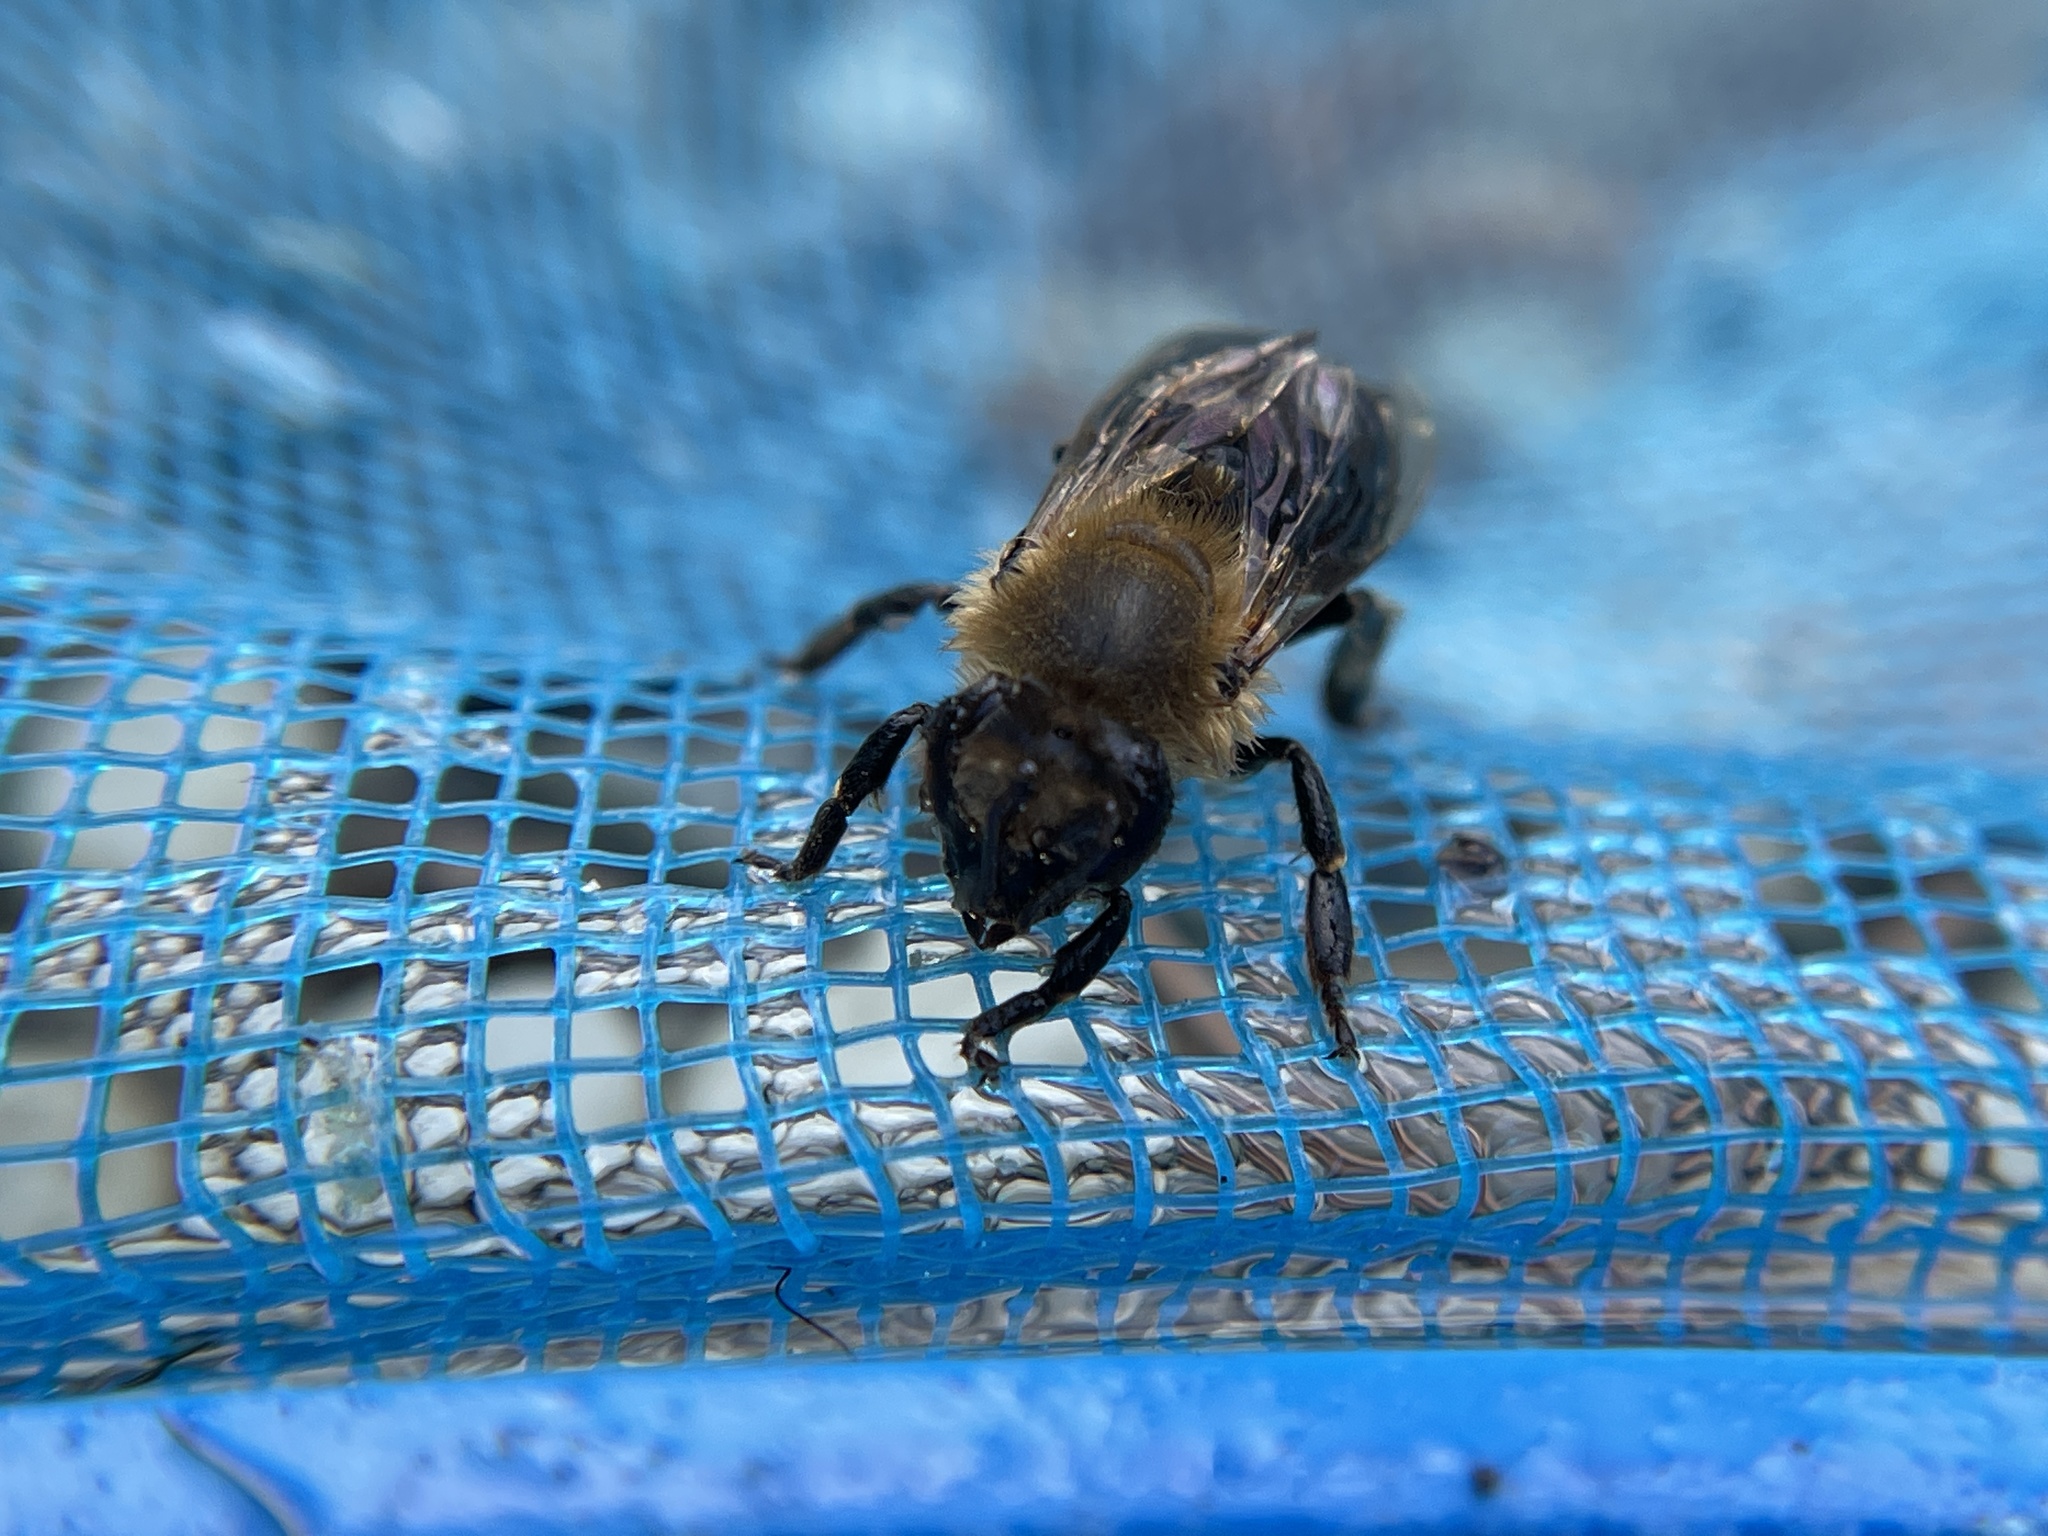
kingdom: Animalia
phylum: Arthropoda
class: Insecta
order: Hymenoptera
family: Apidae
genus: Apis
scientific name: Apis mellifera
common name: Honey bee
